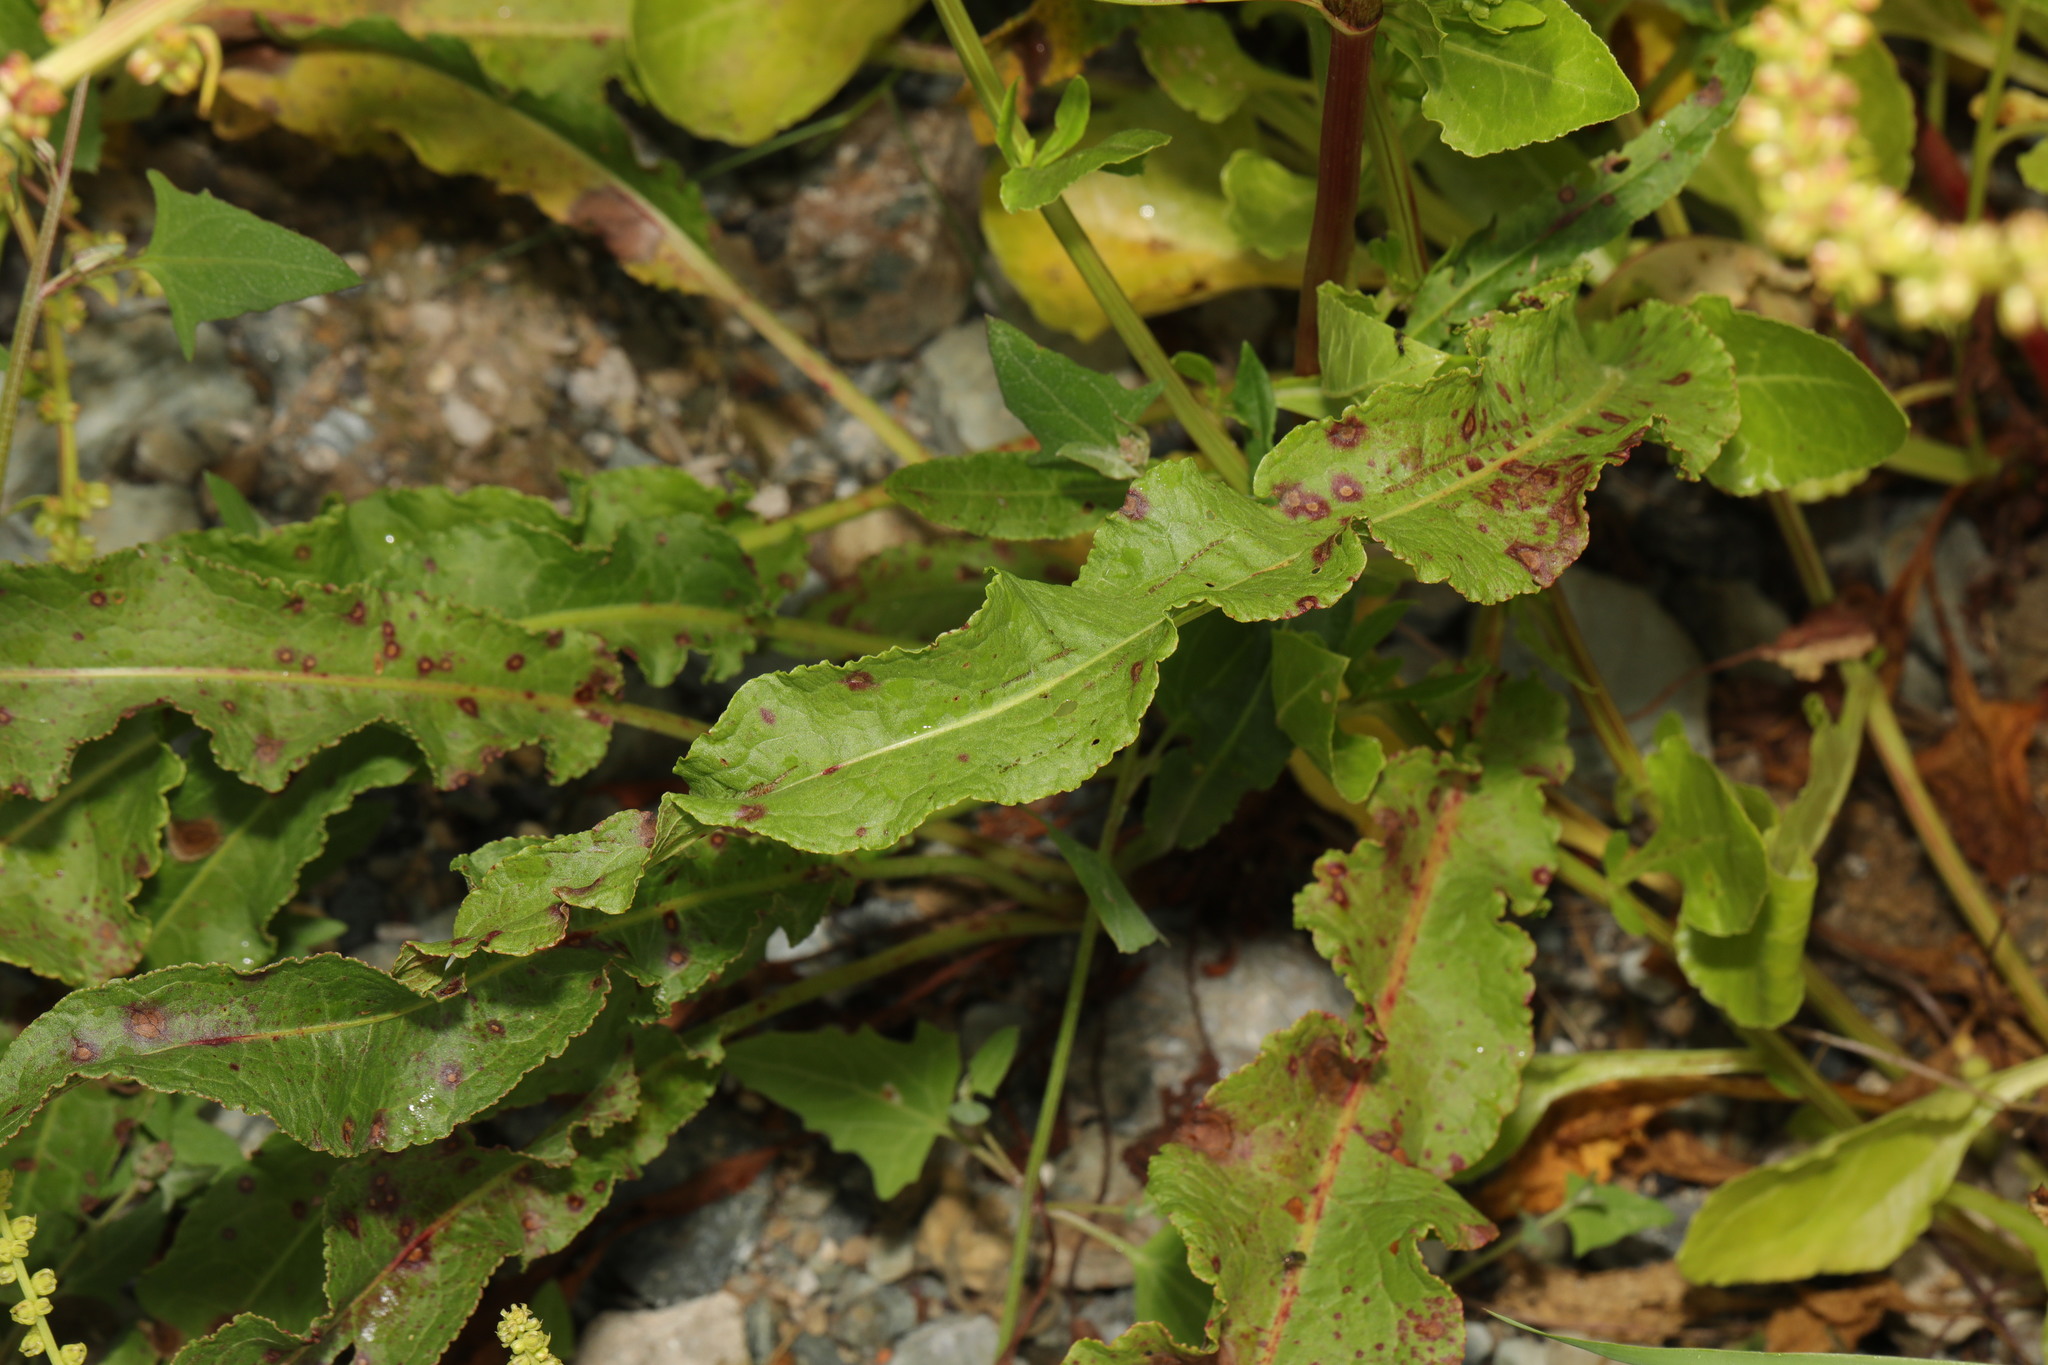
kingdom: Plantae
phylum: Tracheophyta
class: Magnoliopsida
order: Caryophyllales
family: Polygonaceae
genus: Rumex
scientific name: Rumex crispus
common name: Curled dock
